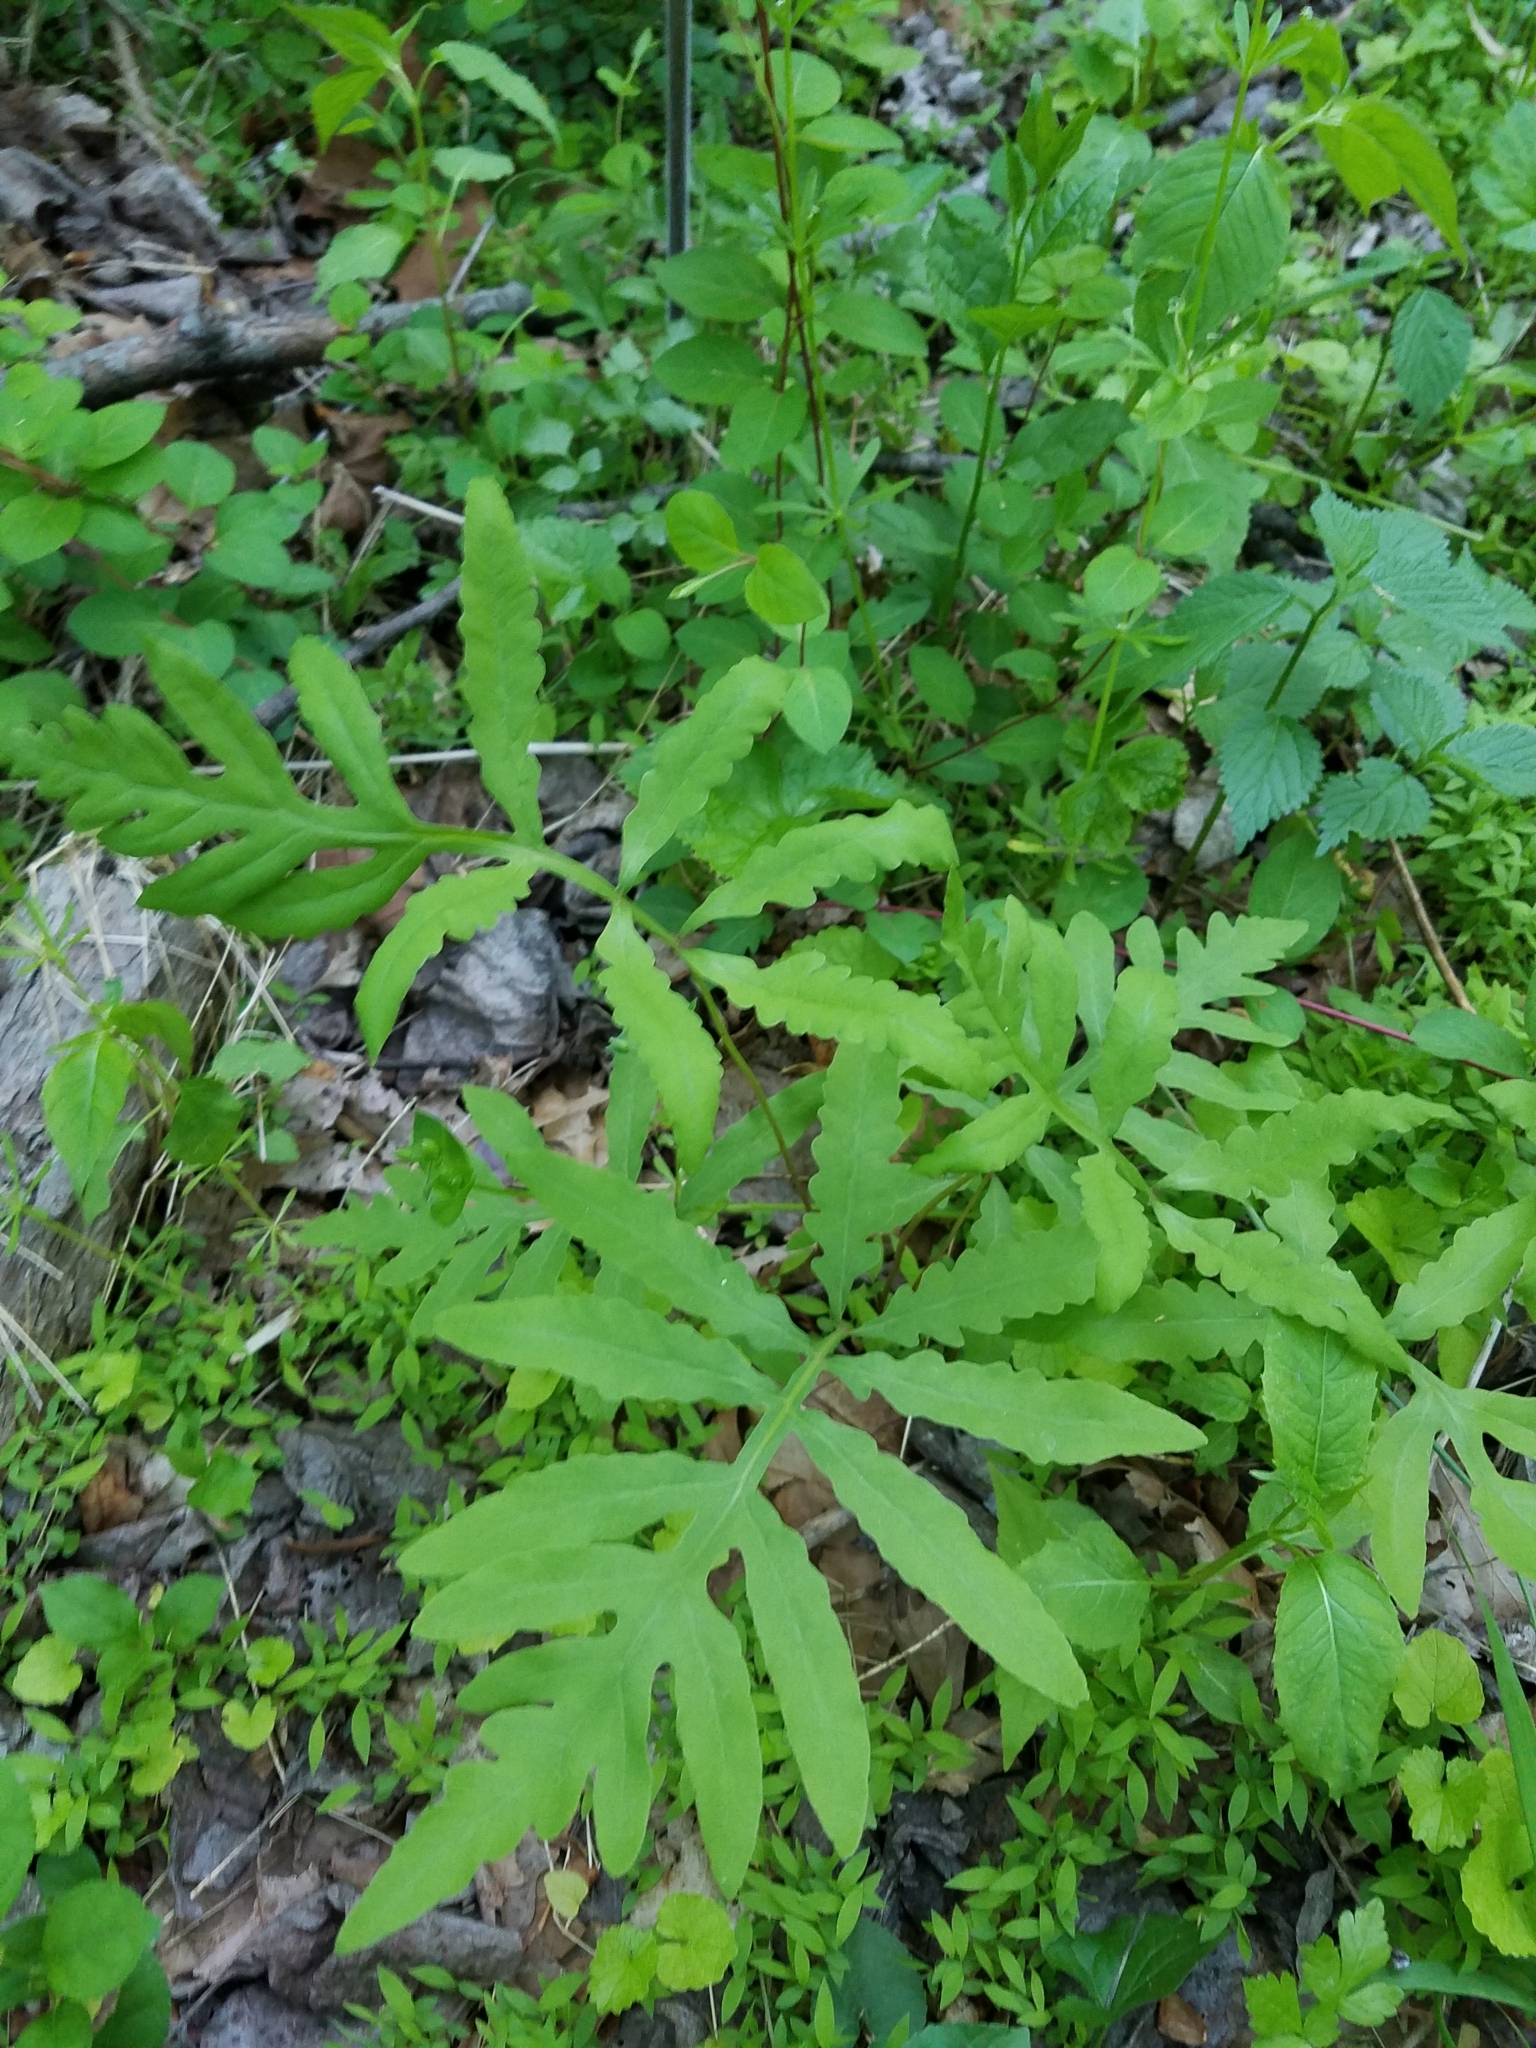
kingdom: Plantae
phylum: Tracheophyta
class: Polypodiopsida
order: Polypodiales
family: Onocleaceae
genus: Onoclea
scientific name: Onoclea sensibilis
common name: Sensitive fern
